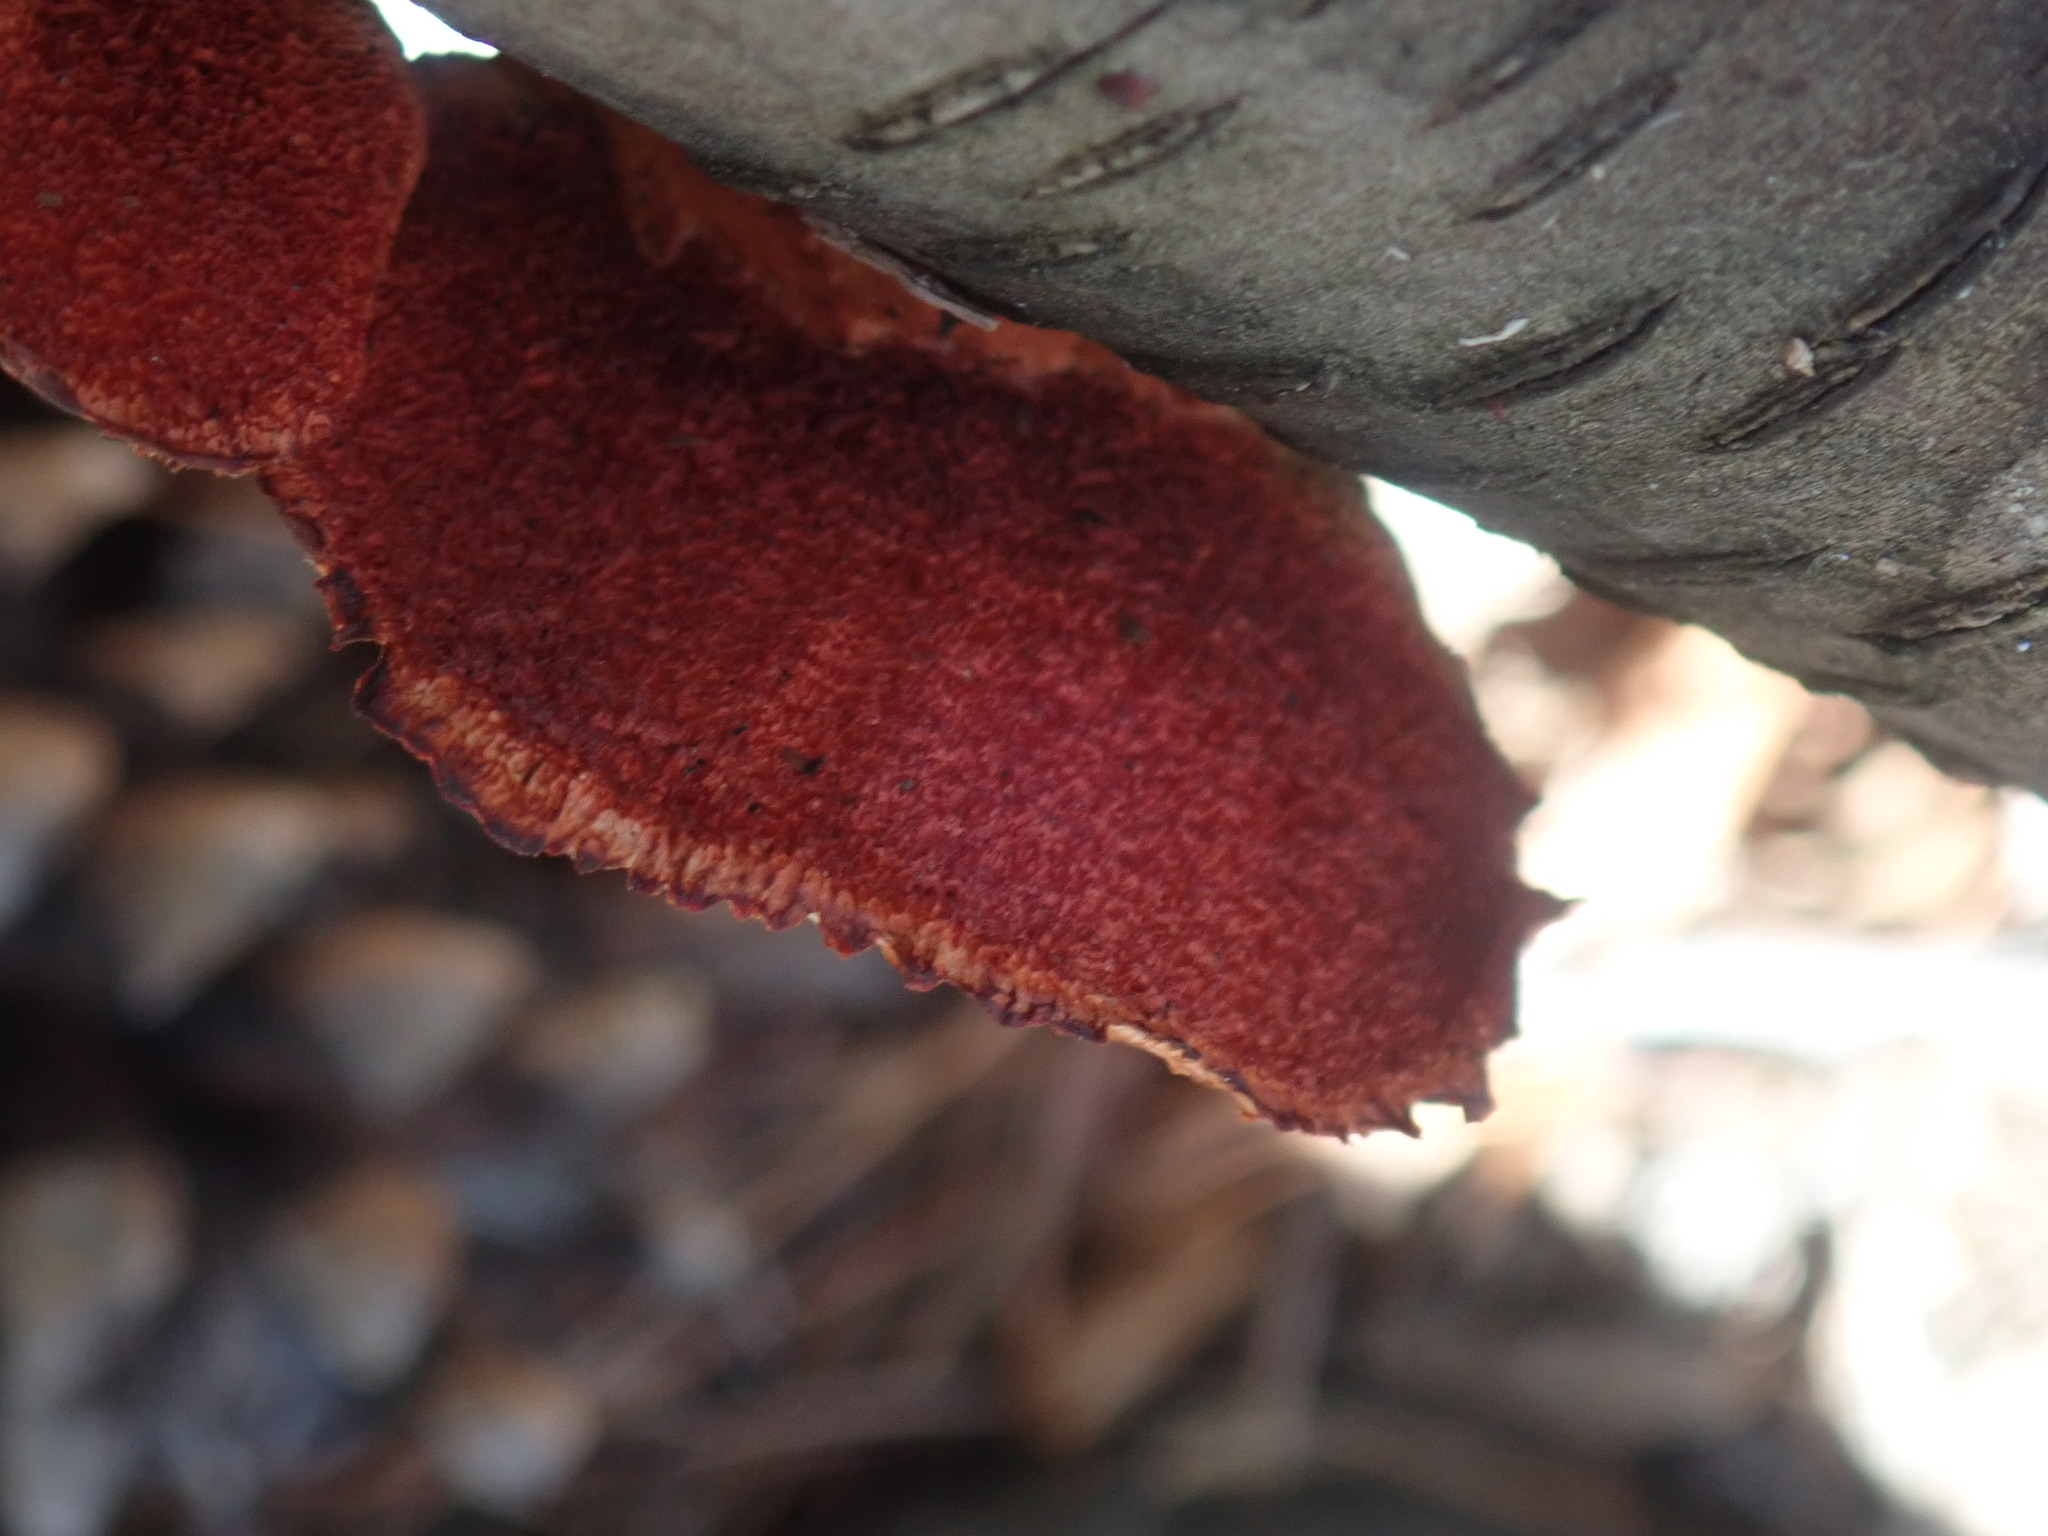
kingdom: Fungi
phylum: Basidiomycota
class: Agaricomycetes
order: Polyporales
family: Polyporaceae
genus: Trametes
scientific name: Trametes cinnabarina
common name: Northern cinnabar polypore
